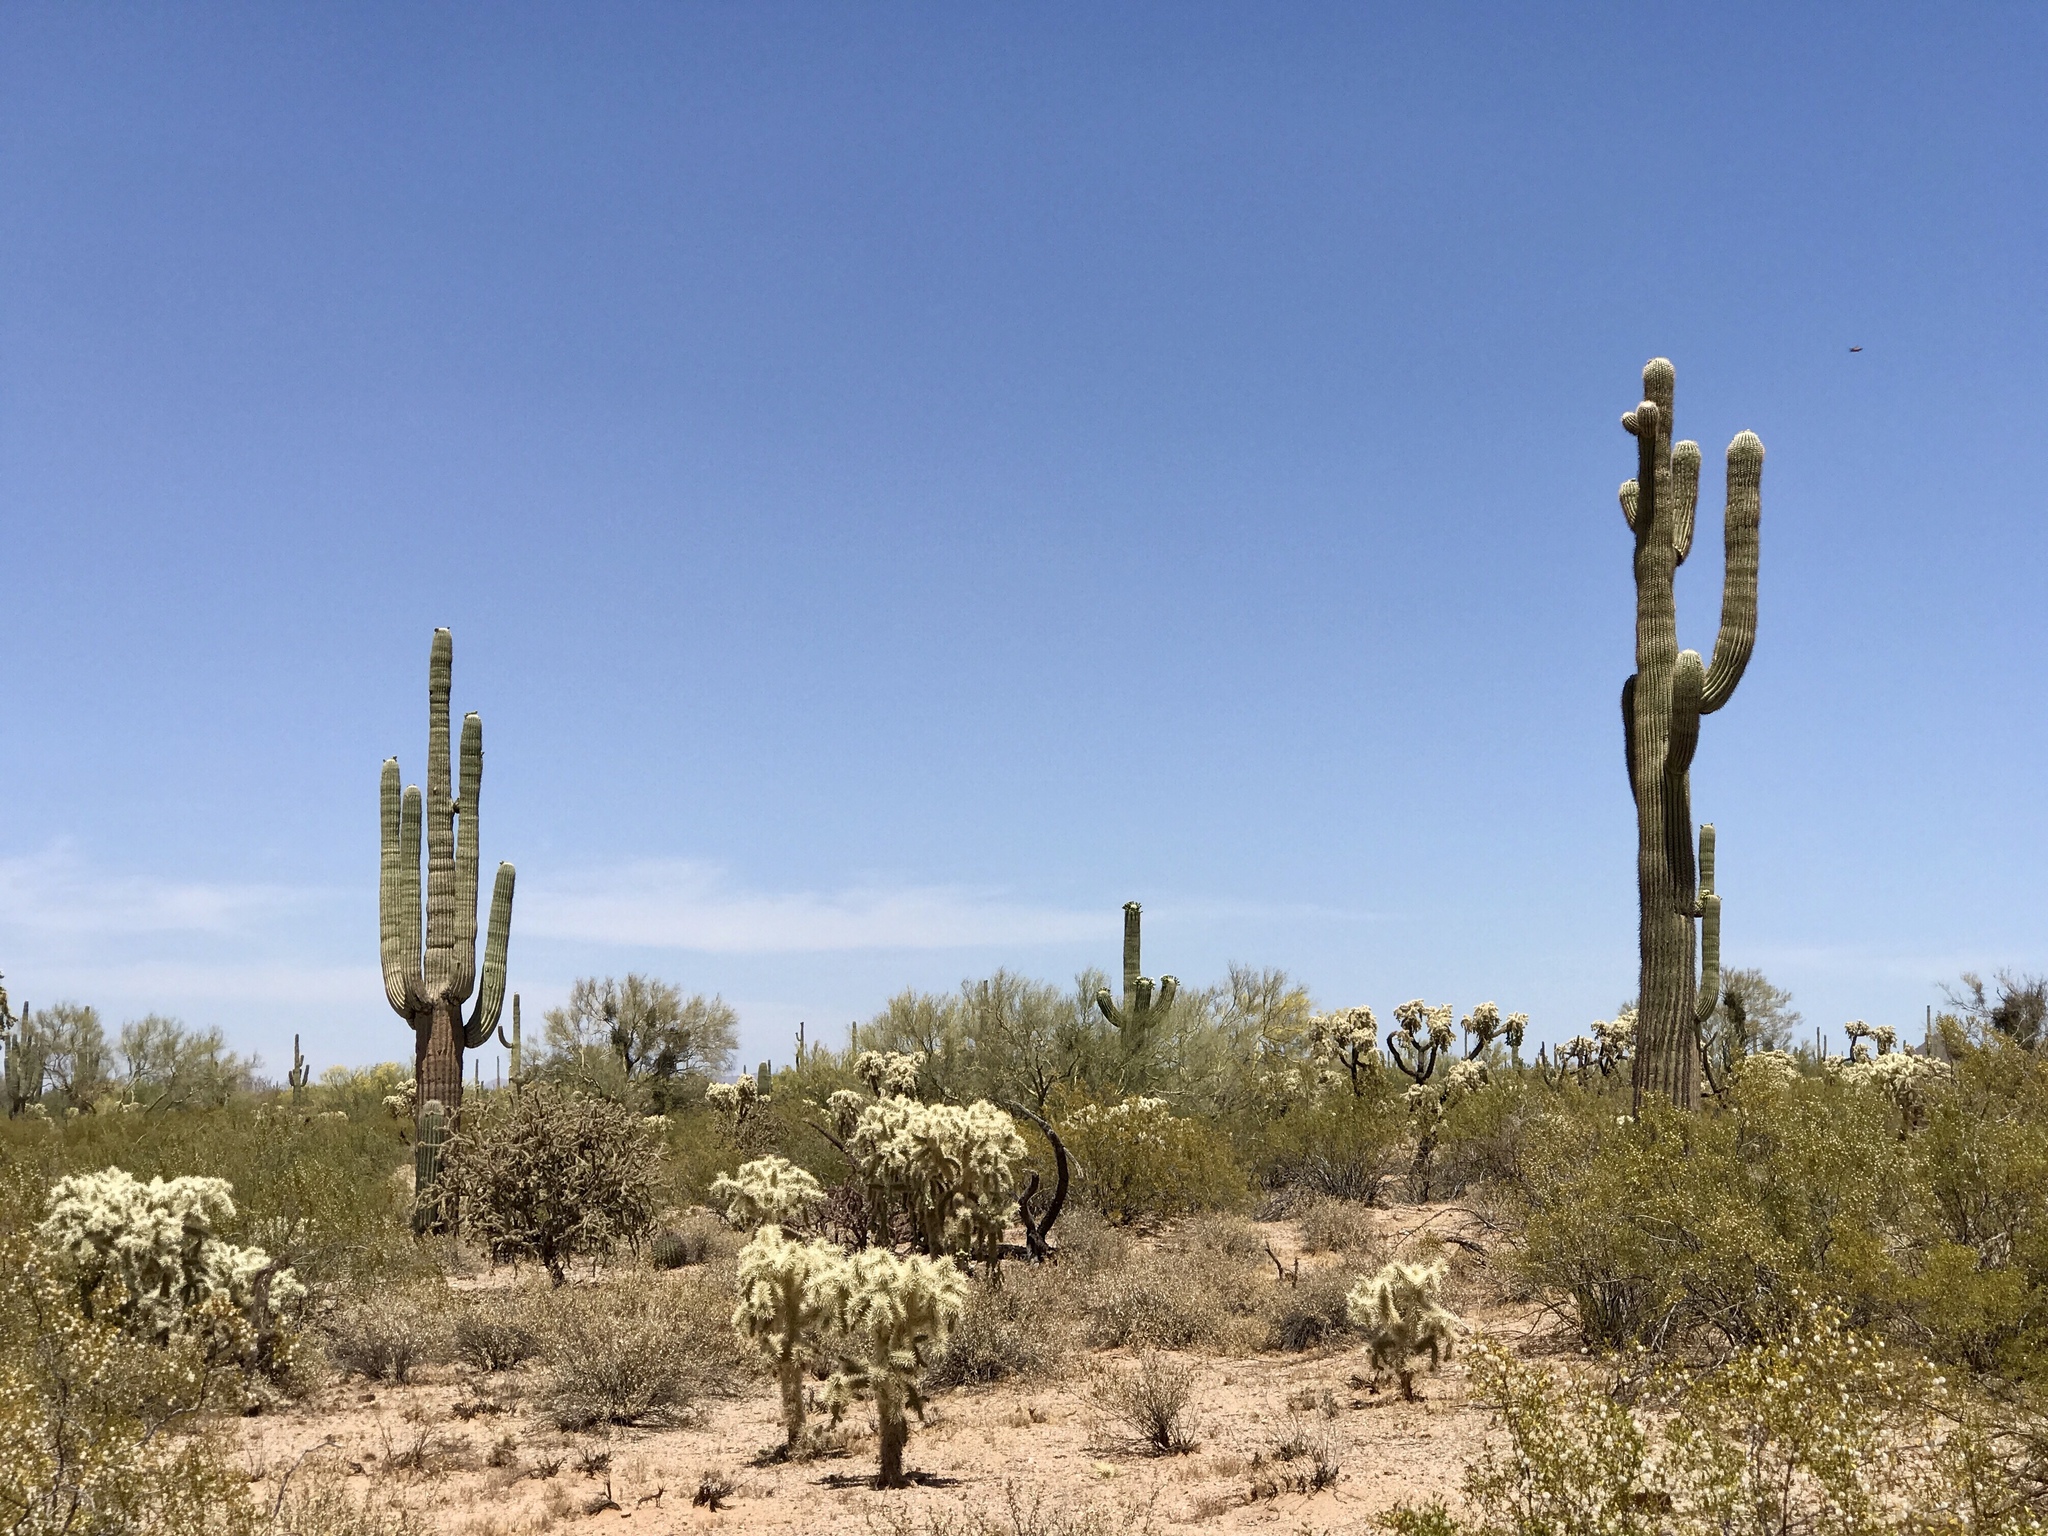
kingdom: Plantae
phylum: Tracheophyta
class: Magnoliopsida
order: Caryophyllales
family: Cactaceae
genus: Carnegiea
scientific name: Carnegiea gigantea
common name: Saguaro
